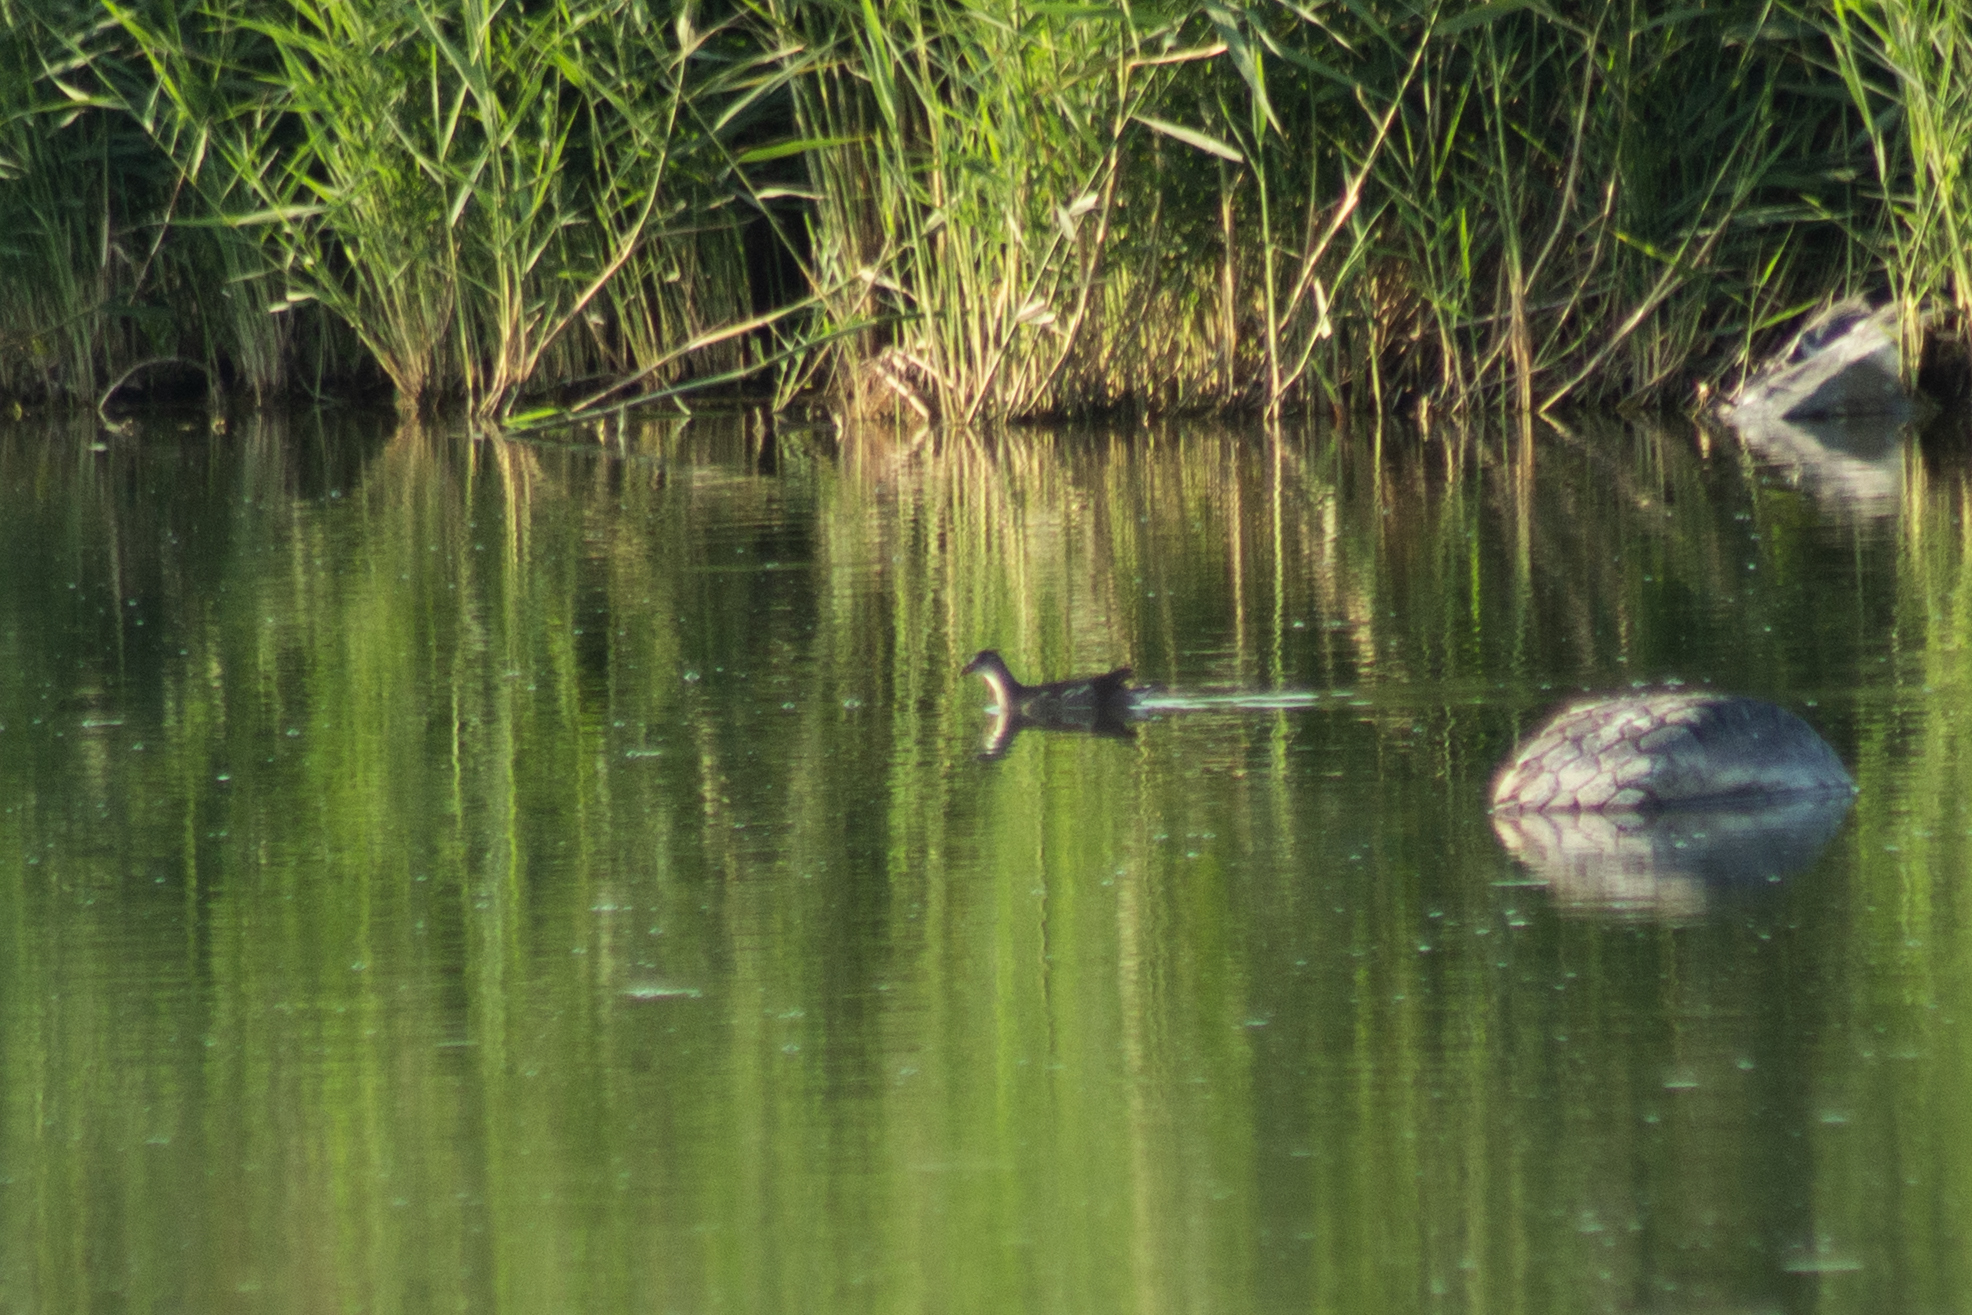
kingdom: Animalia
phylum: Chordata
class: Aves
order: Gruiformes
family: Rallidae
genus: Gallinula
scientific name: Gallinula chloropus
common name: Common moorhen
